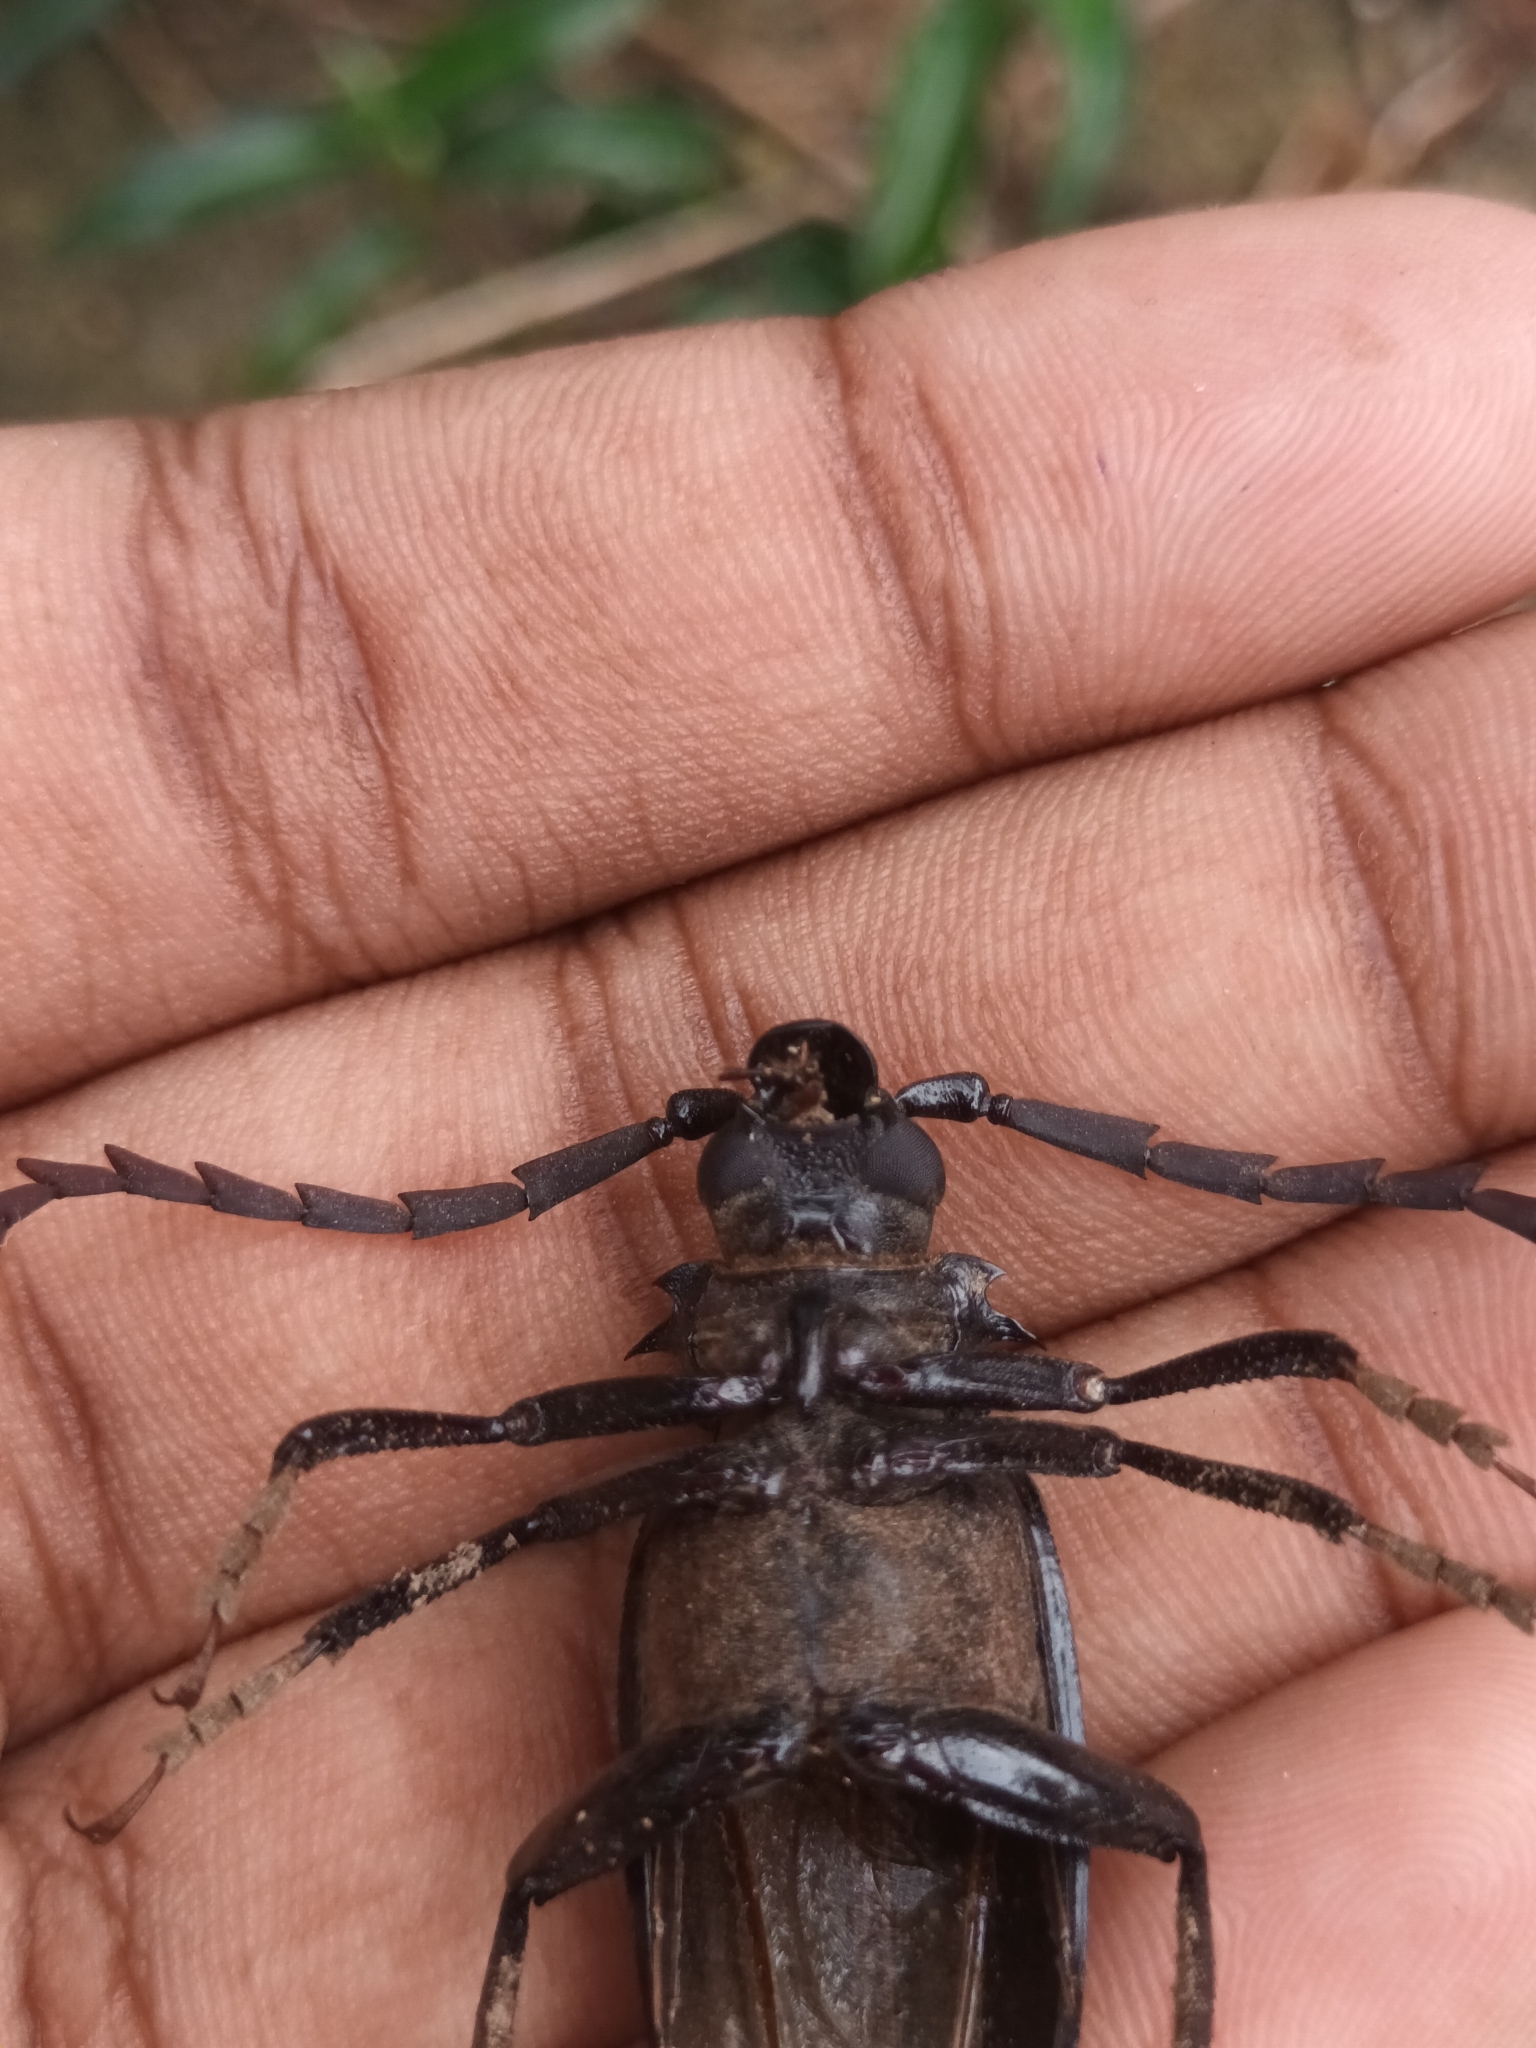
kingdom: Animalia
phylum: Arthropoda
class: Insecta
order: Coleoptera
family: Cerambycidae
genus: Prionomma
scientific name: Prionomma atratum
